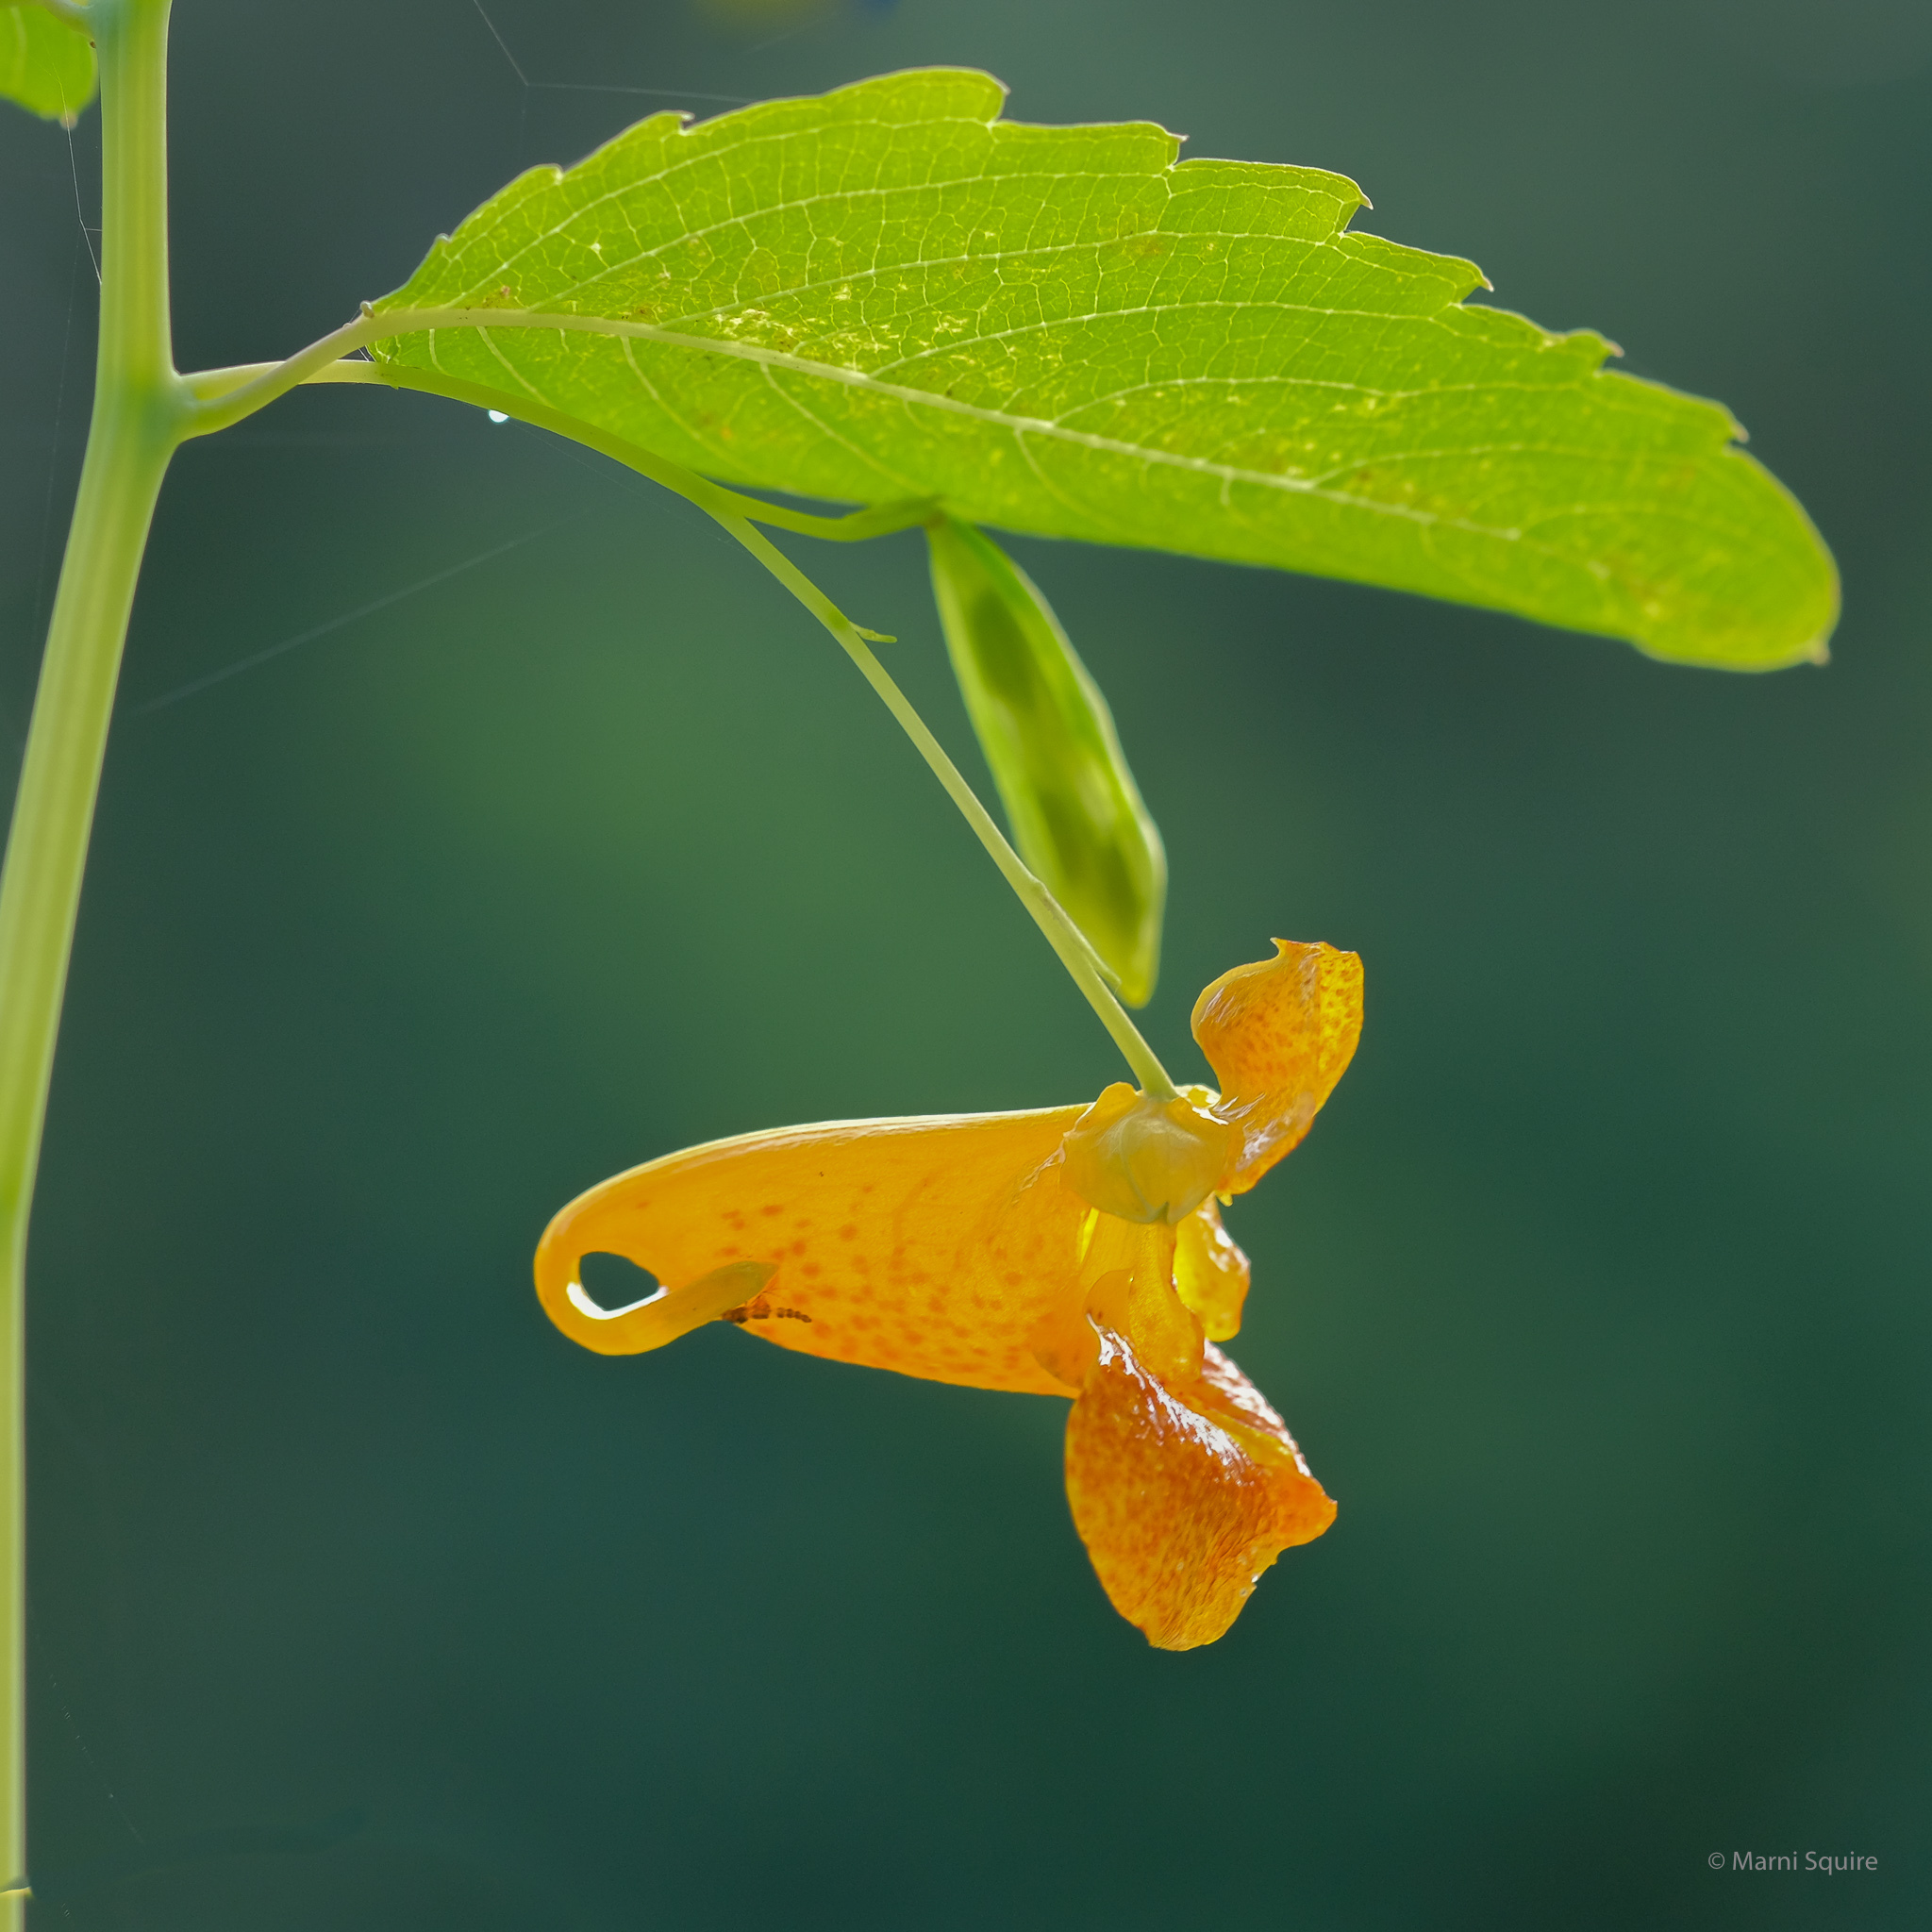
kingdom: Plantae
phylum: Tracheophyta
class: Magnoliopsida
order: Ericales
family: Balsaminaceae
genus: Impatiens
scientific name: Impatiens capensis
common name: Orange balsam
